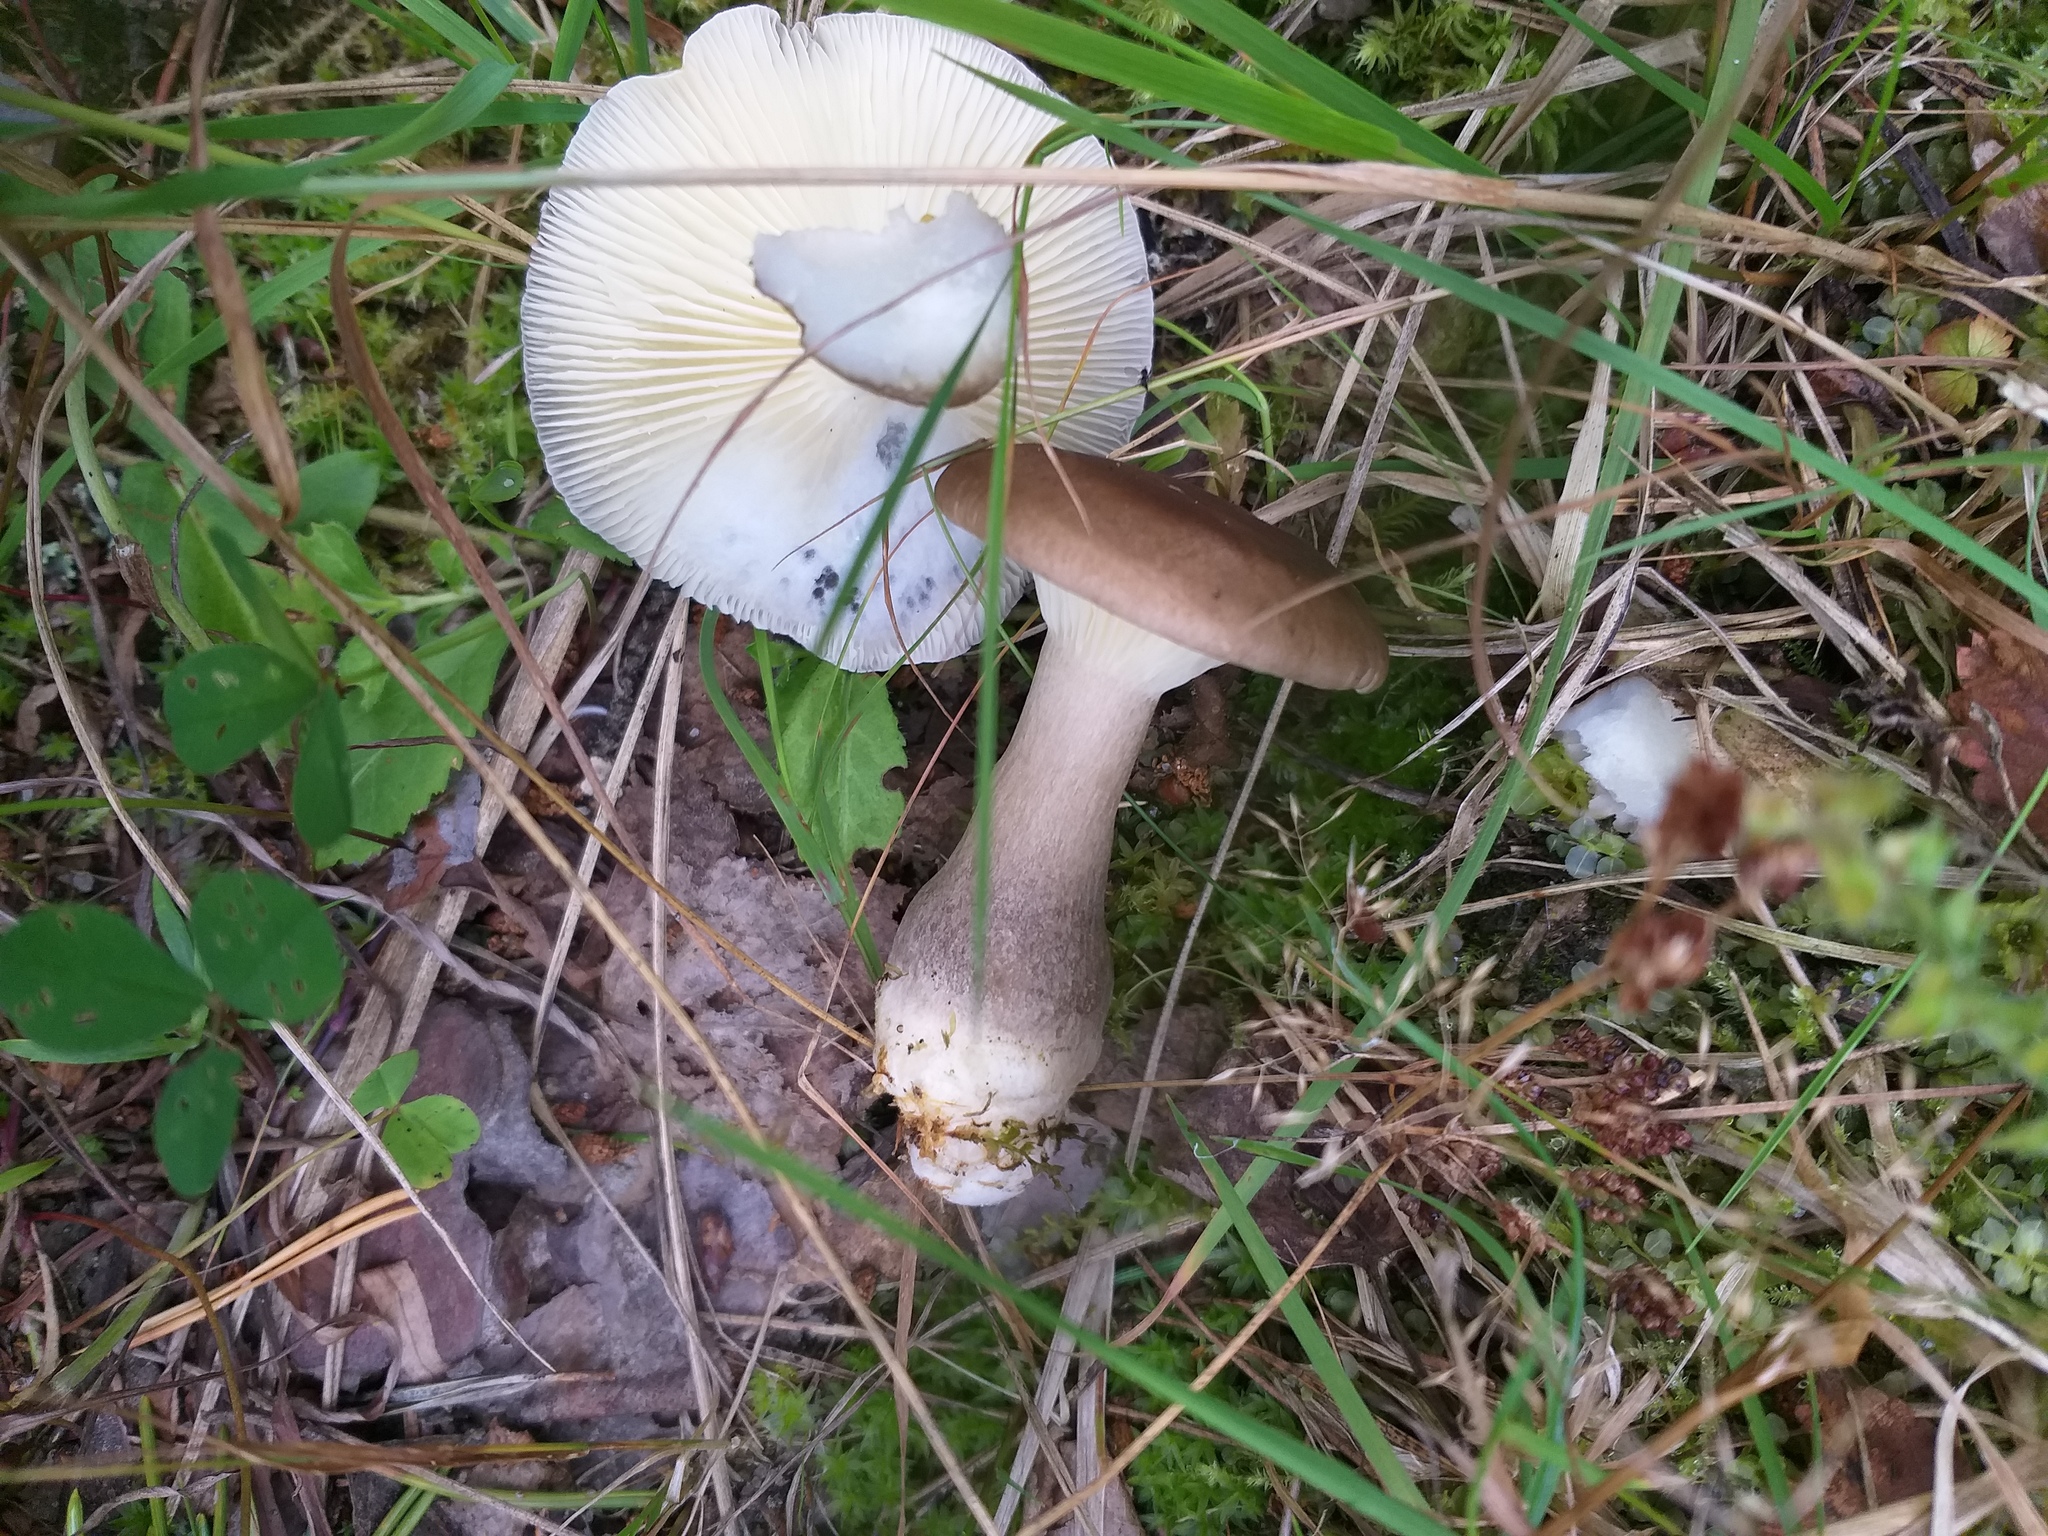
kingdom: Fungi
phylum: Basidiomycota
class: Agaricomycetes
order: Agaricales
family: Hygrophoraceae
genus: Ampulloclitocybe
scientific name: Ampulloclitocybe clavipes
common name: Club foot
